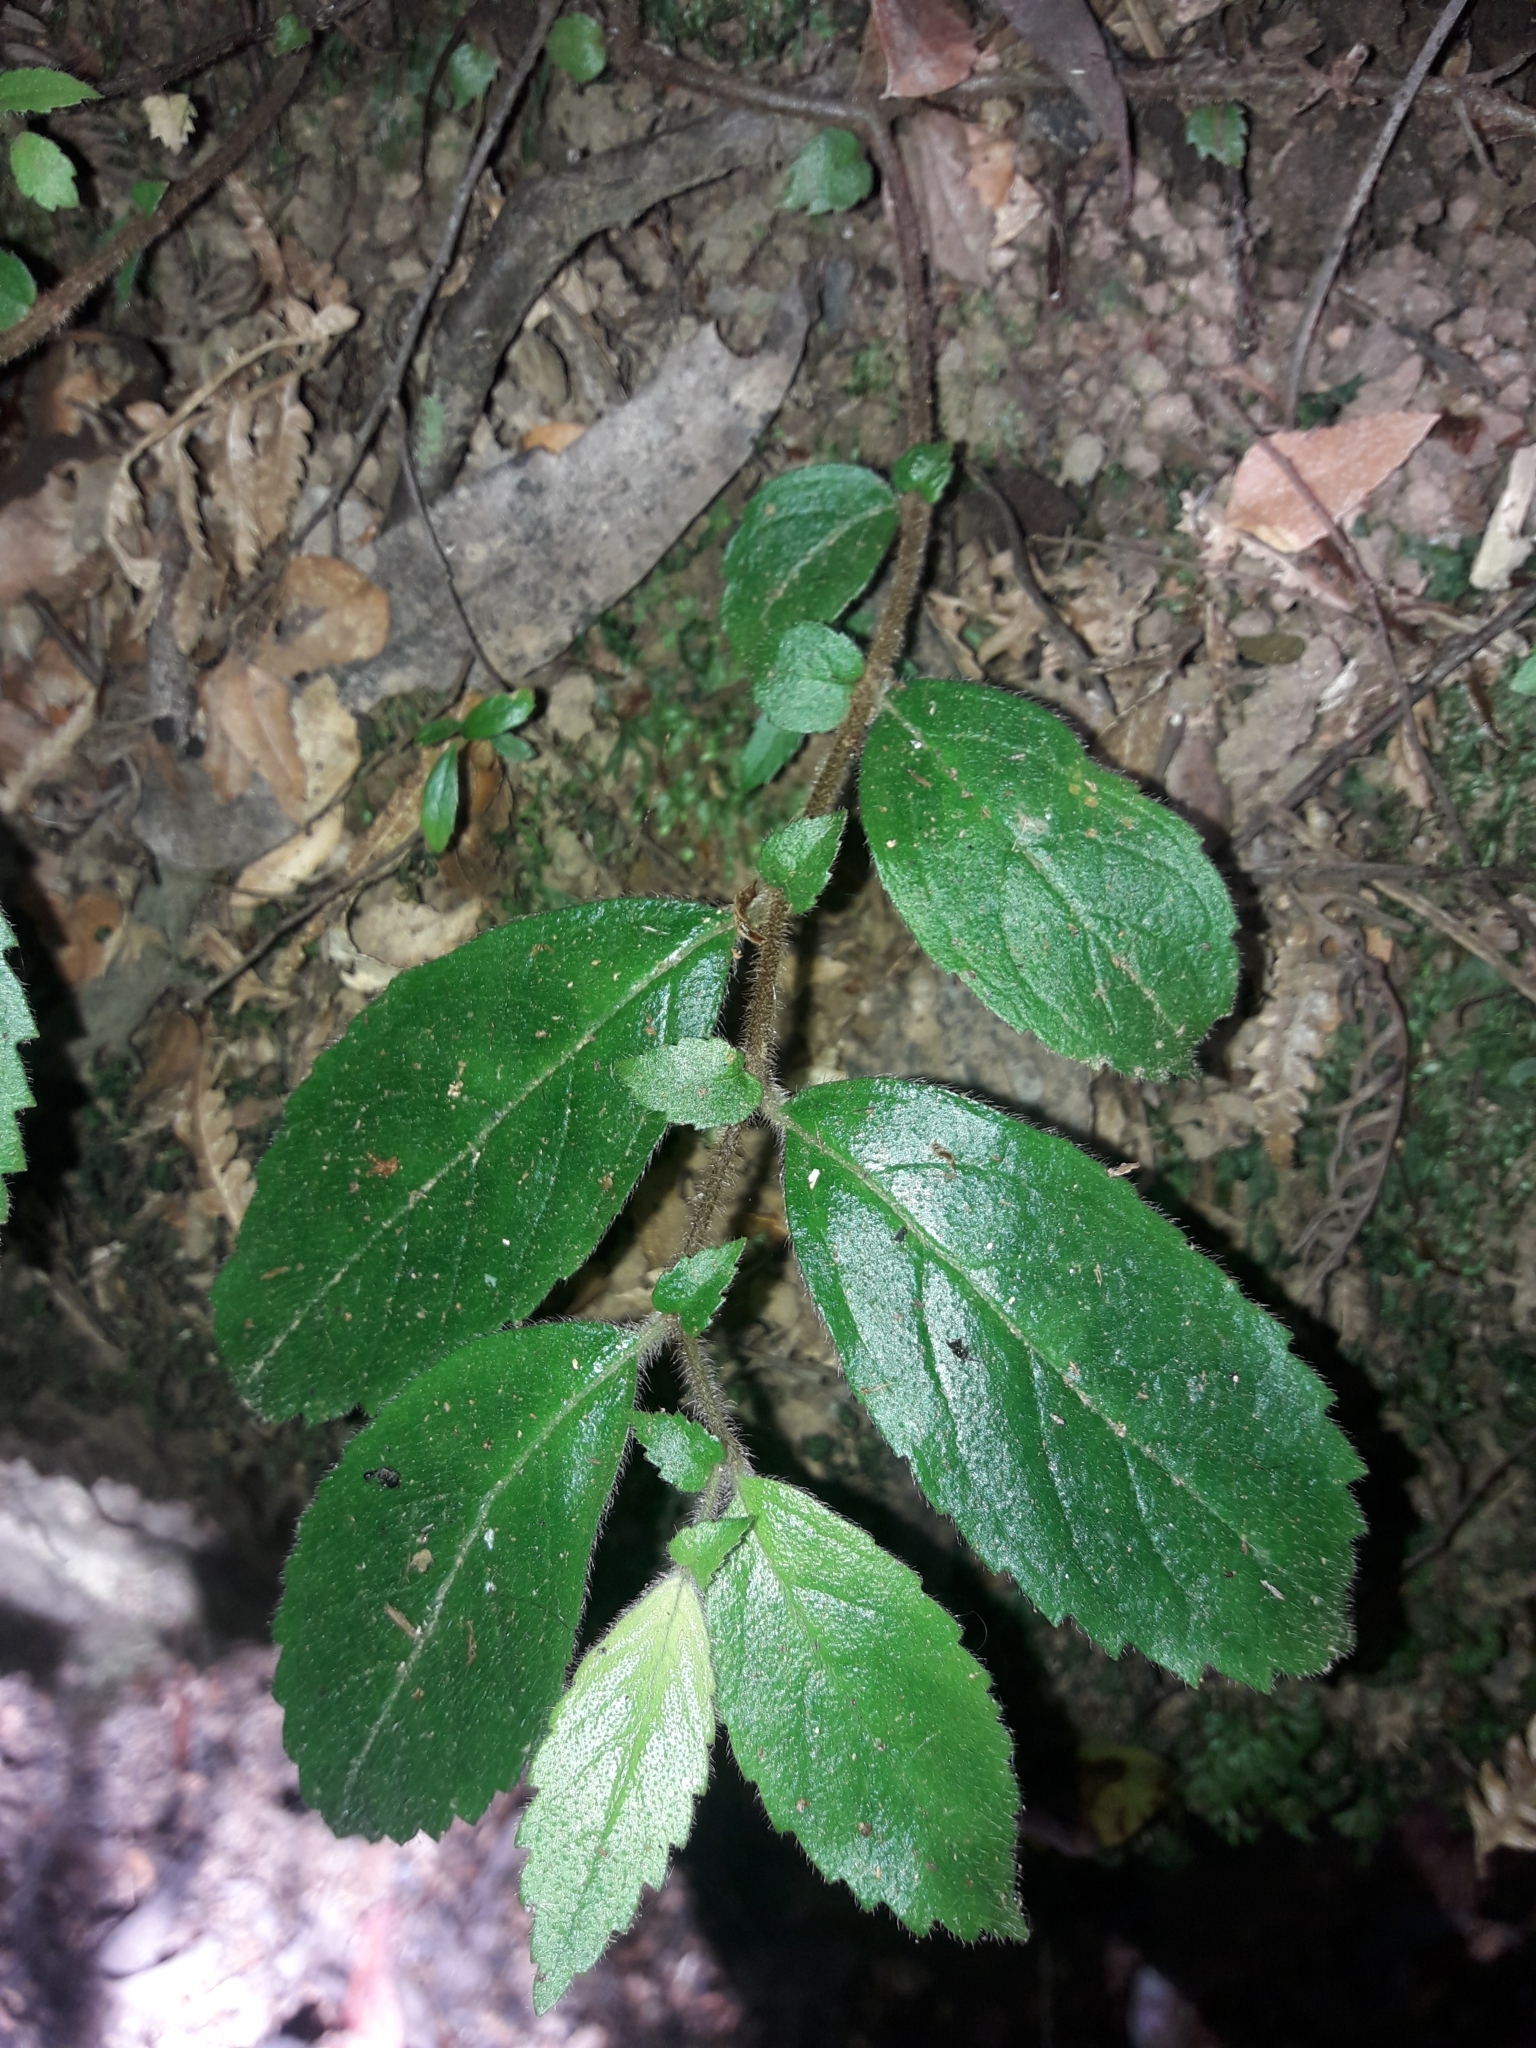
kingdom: Plantae
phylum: Tracheophyta
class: Magnoliopsida
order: Lamiales
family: Gesneriaceae
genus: Fieldia
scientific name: Fieldia australis
